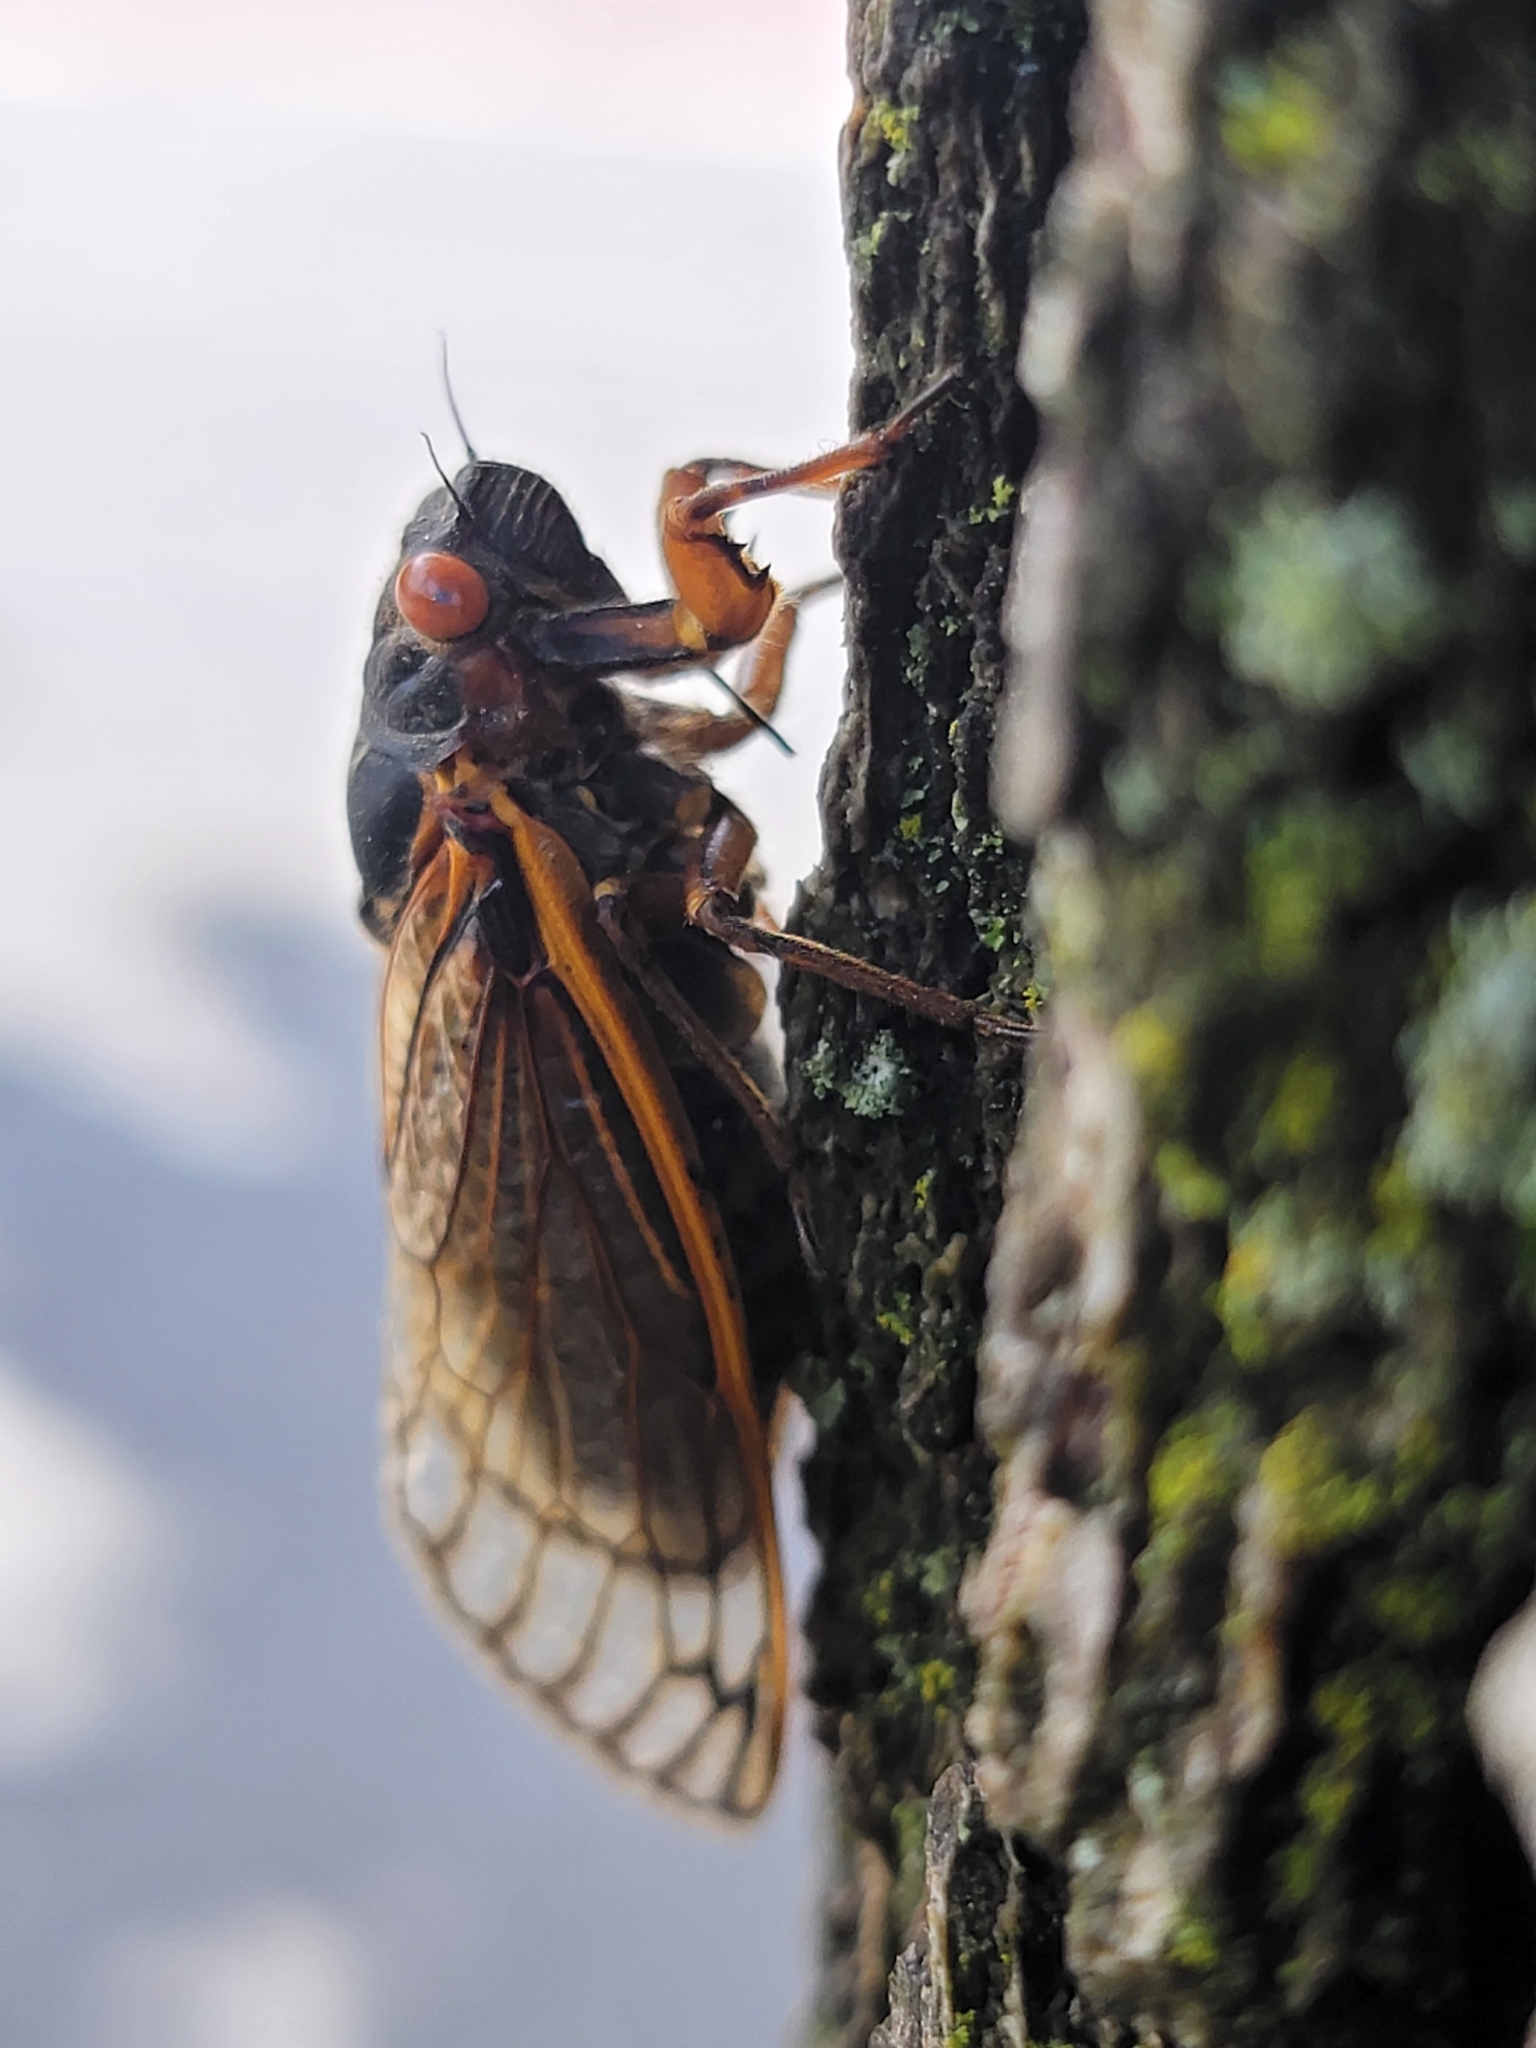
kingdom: Animalia
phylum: Arthropoda
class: Insecta
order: Hemiptera
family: Cicadidae
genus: Magicicada
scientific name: Magicicada septendecim
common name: Periodical cicada
